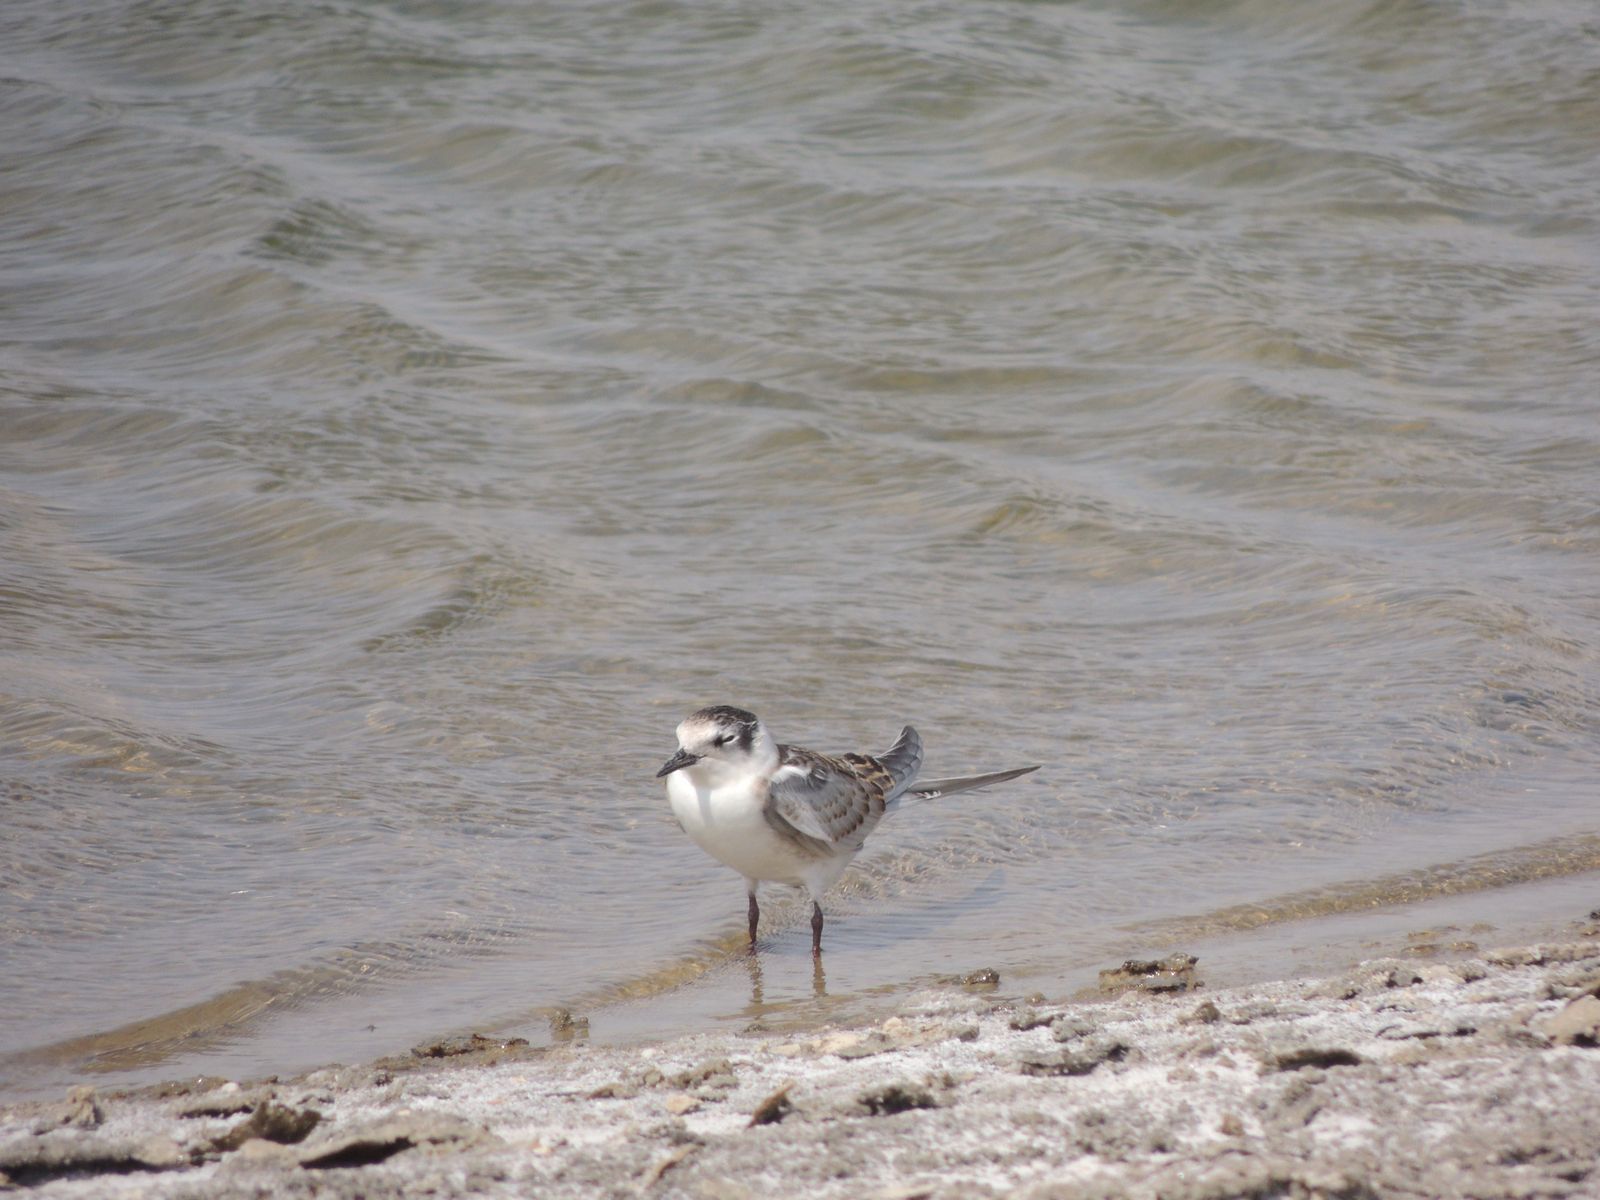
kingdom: Animalia
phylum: Chordata
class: Aves
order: Charadriiformes
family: Laridae
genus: Chlidonias
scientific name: Chlidonias hybrida
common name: Whiskered tern
